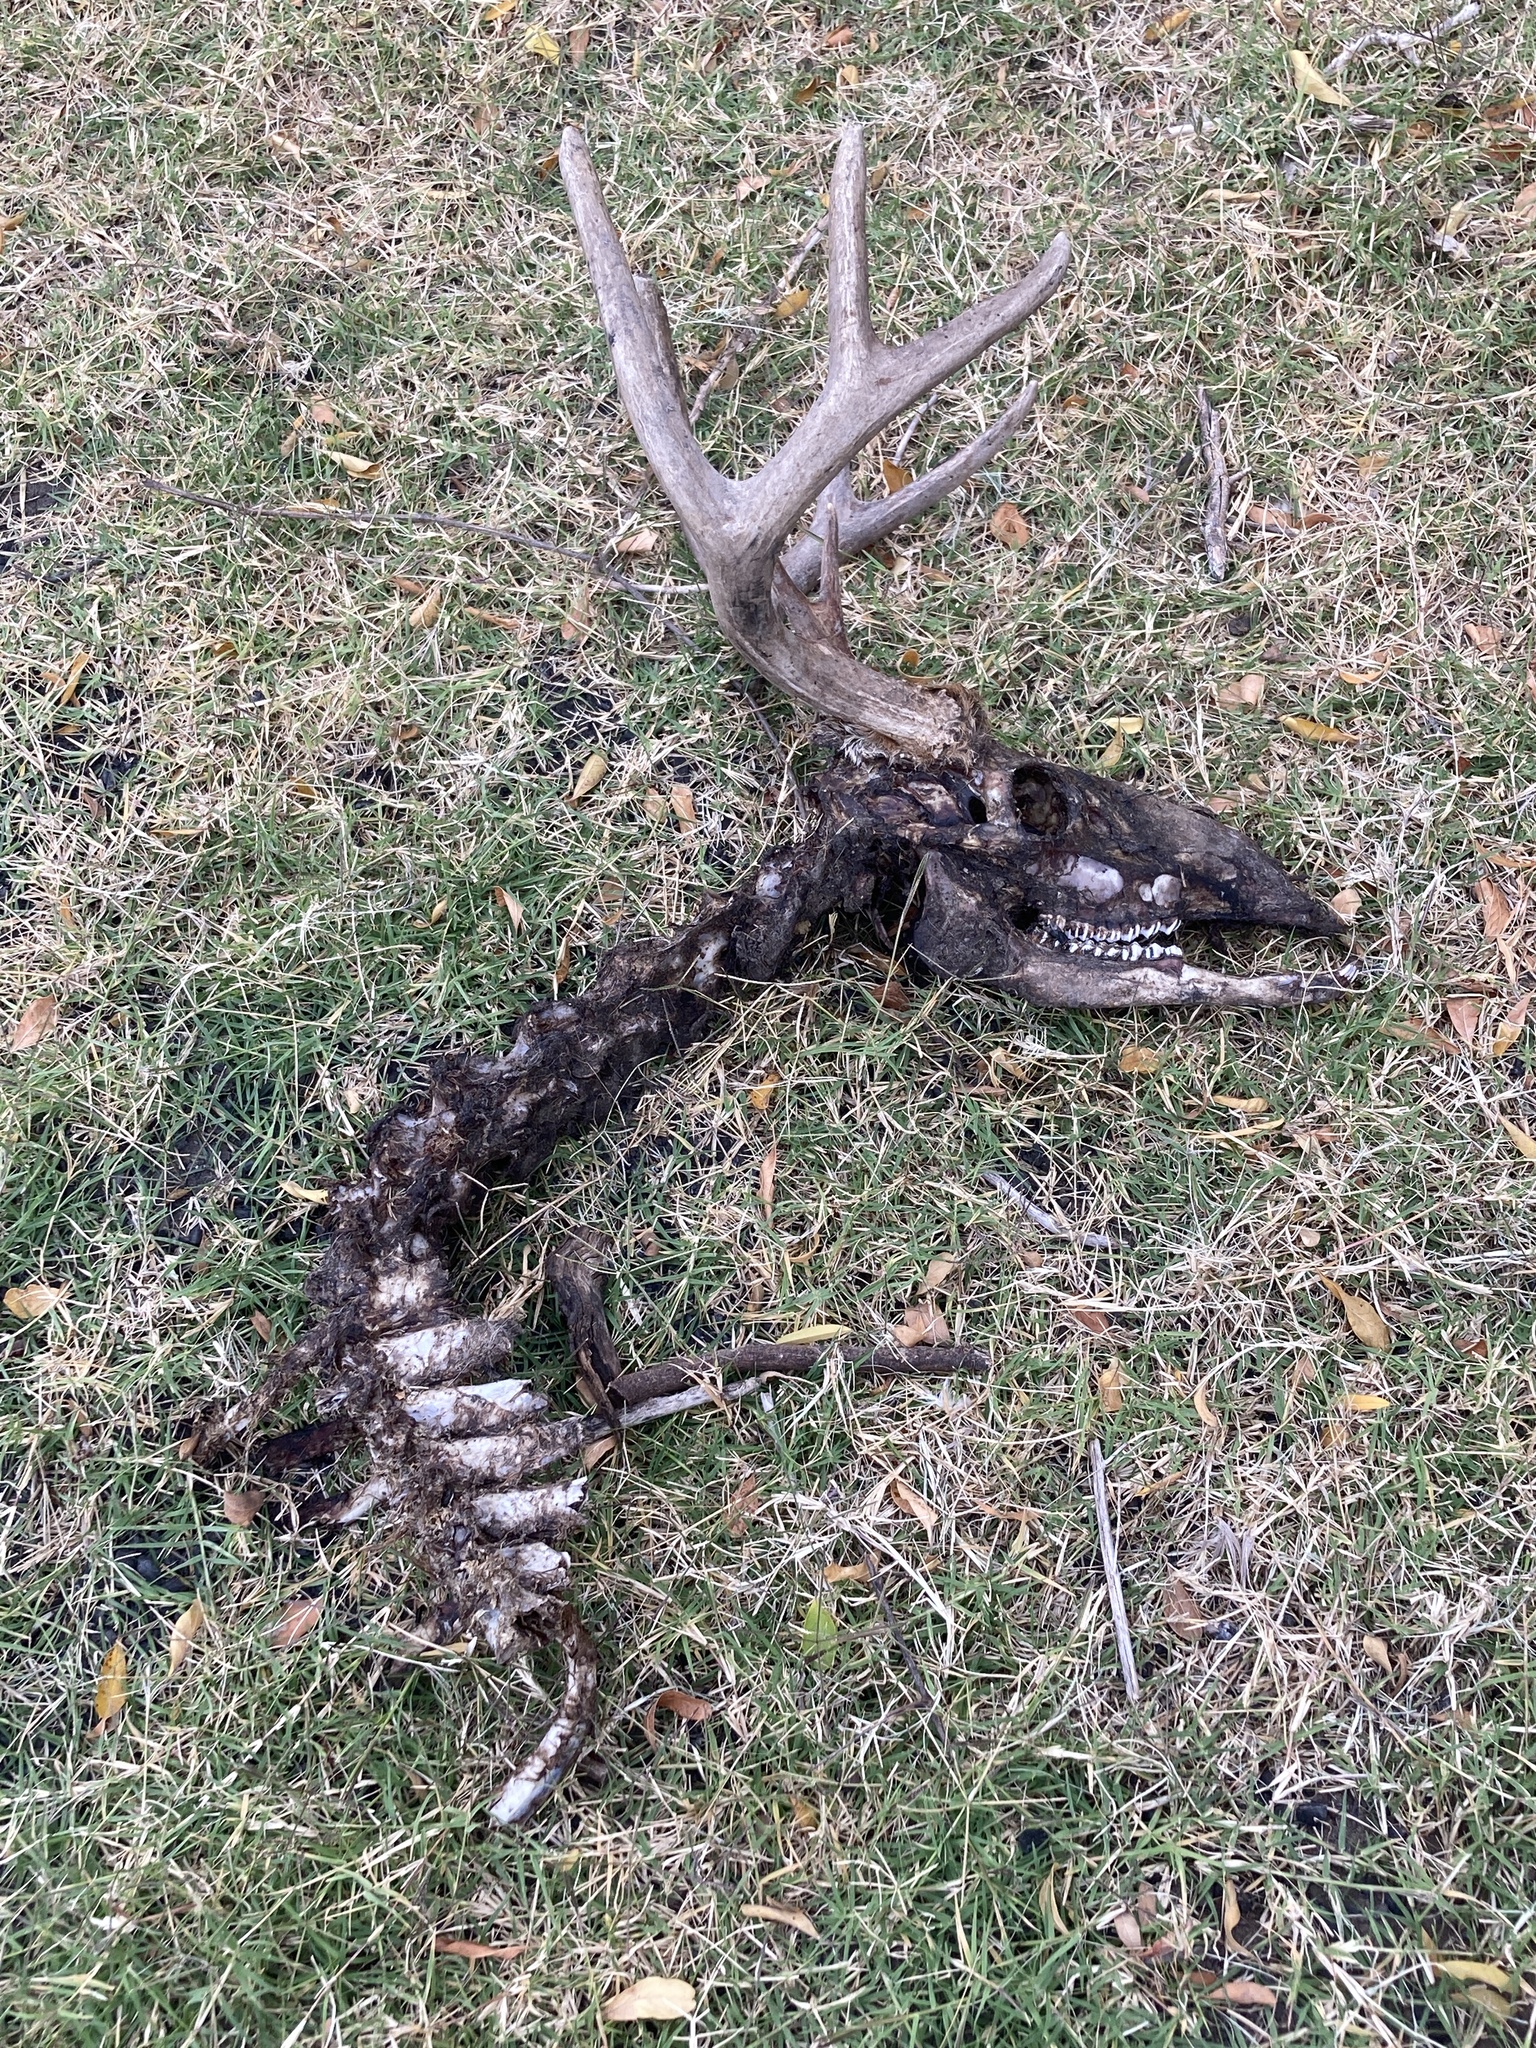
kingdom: Animalia
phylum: Chordata
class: Mammalia
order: Artiodactyla
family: Cervidae
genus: Odocoileus
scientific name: Odocoileus virginianus
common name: White-tailed deer
